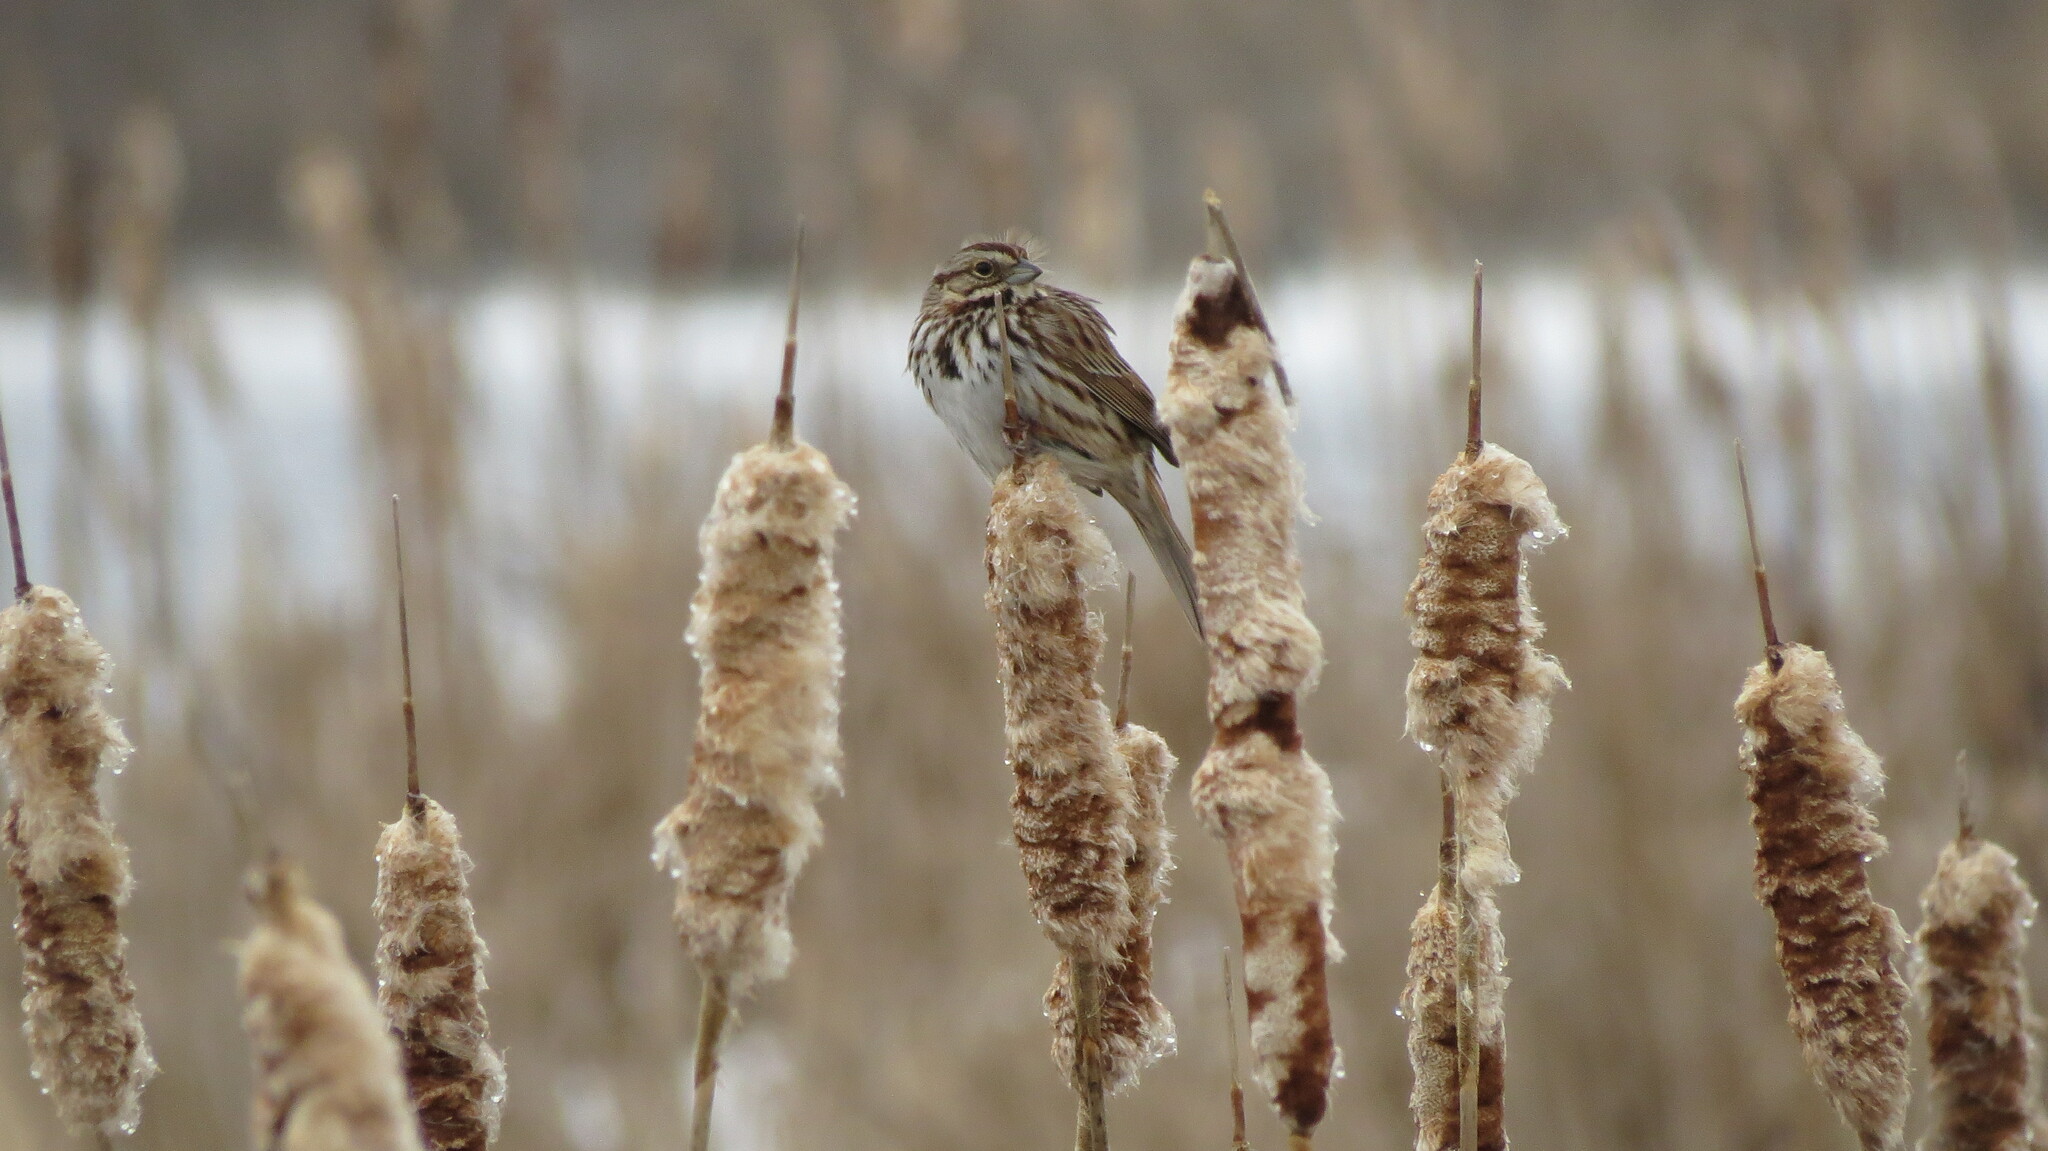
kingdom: Animalia
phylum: Chordata
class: Aves
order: Passeriformes
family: Passerellidae
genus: Melospiza
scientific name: Melospiza melodia
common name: Song sparrow
